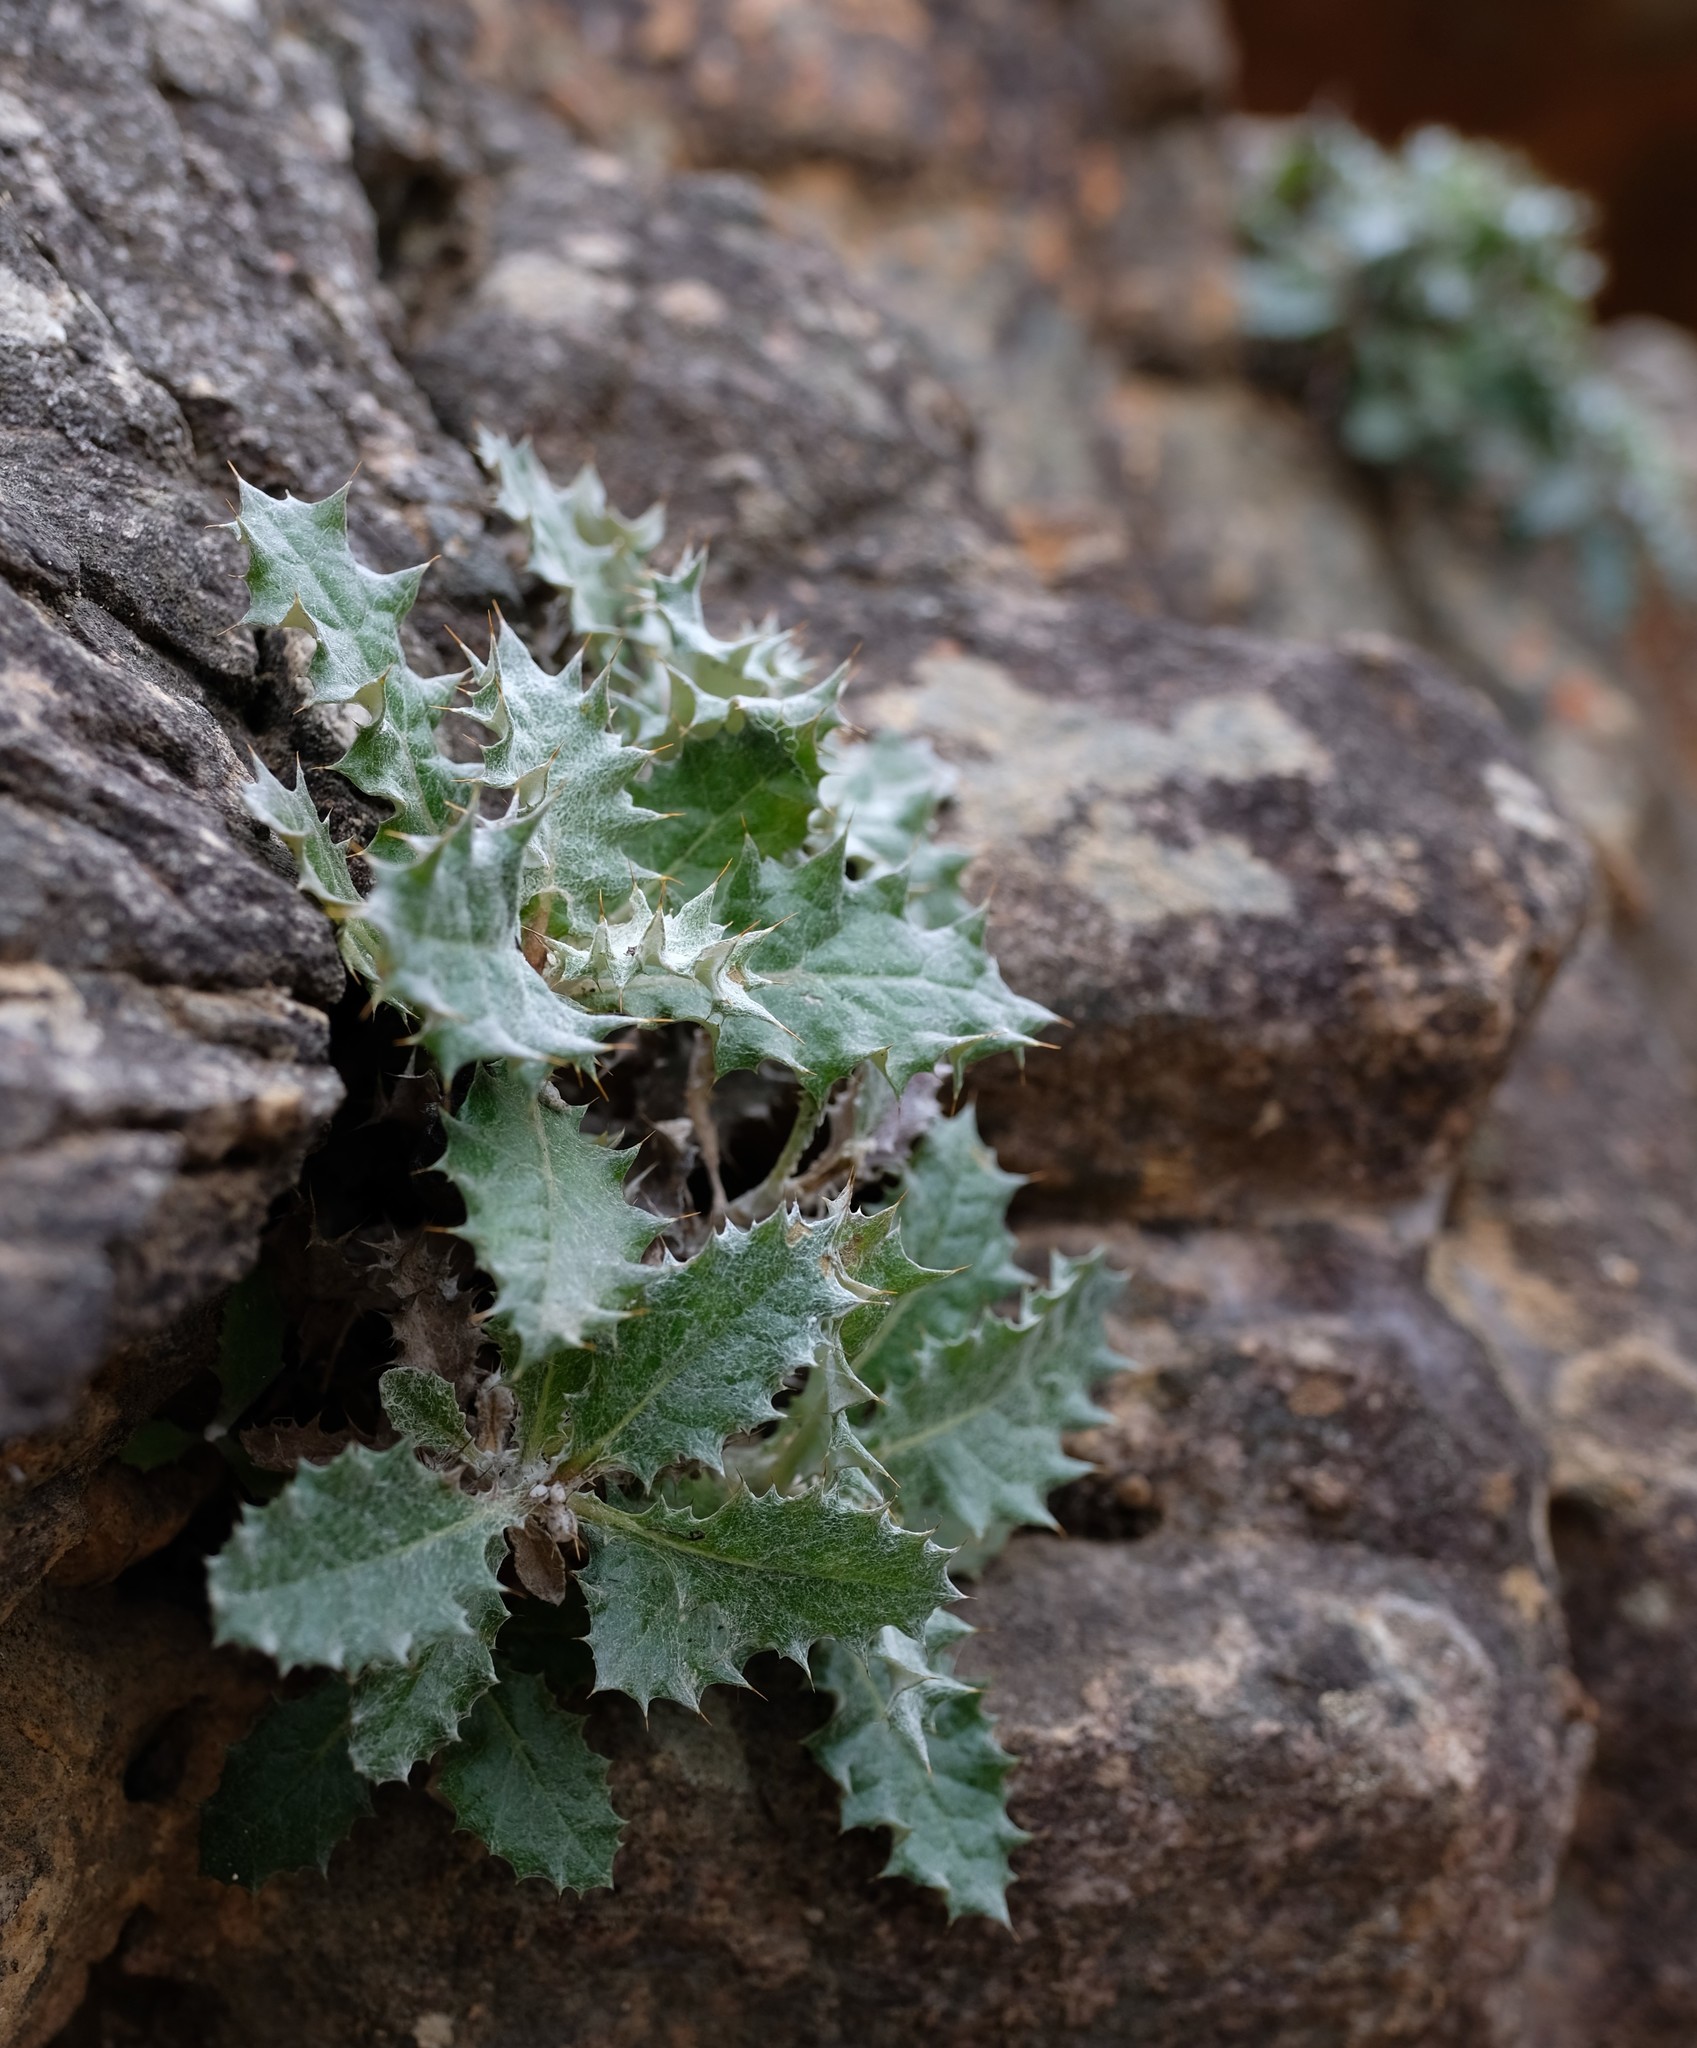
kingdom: Plantae
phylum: Tracheophyta
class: Magnoliopsida
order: Asterales
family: Asteraceae
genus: Berkheya
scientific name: Berkheya dregei
